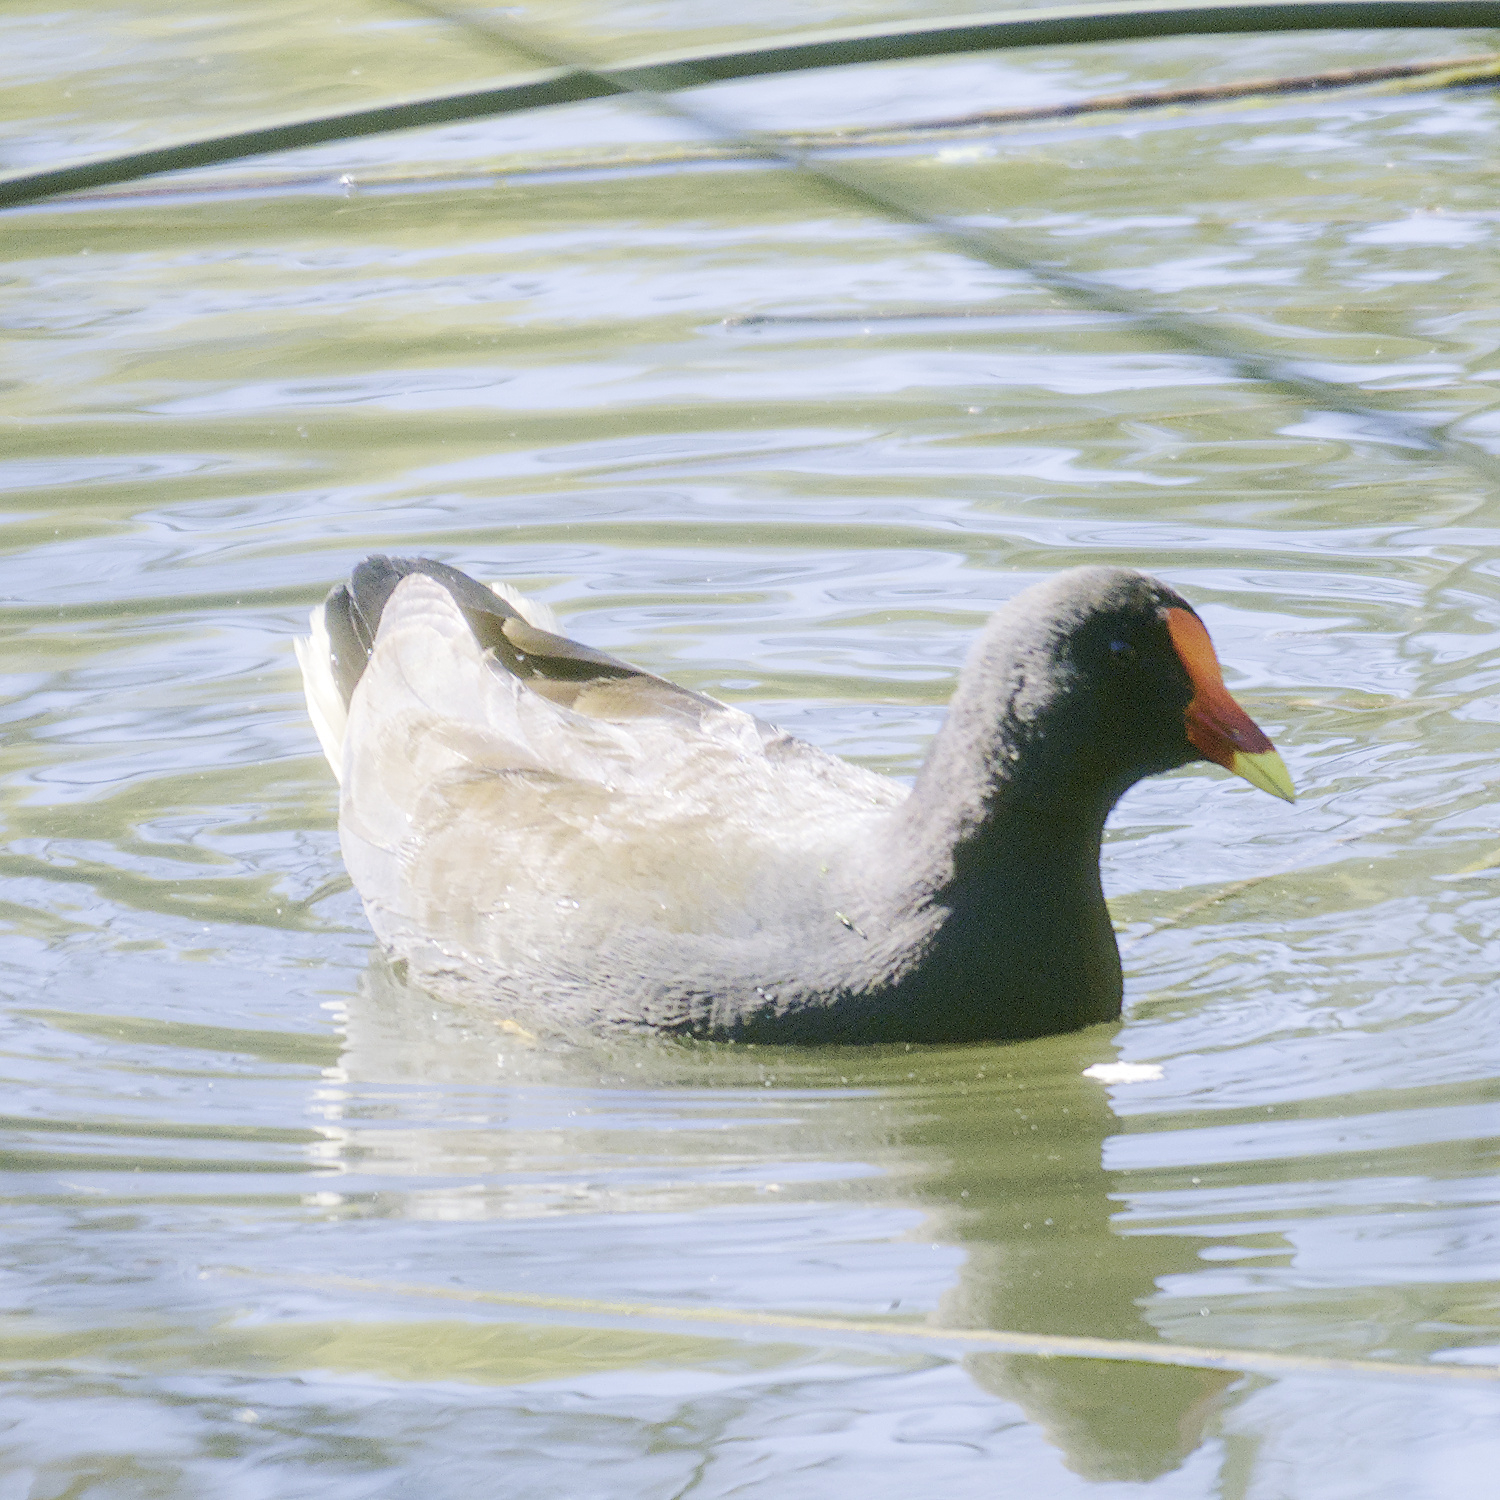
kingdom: Animalia
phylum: Chordata
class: Aves
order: Gruiformes
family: Rallidae
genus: Gallinula
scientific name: Gallinula tenebrosa
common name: Dusky moorhen
